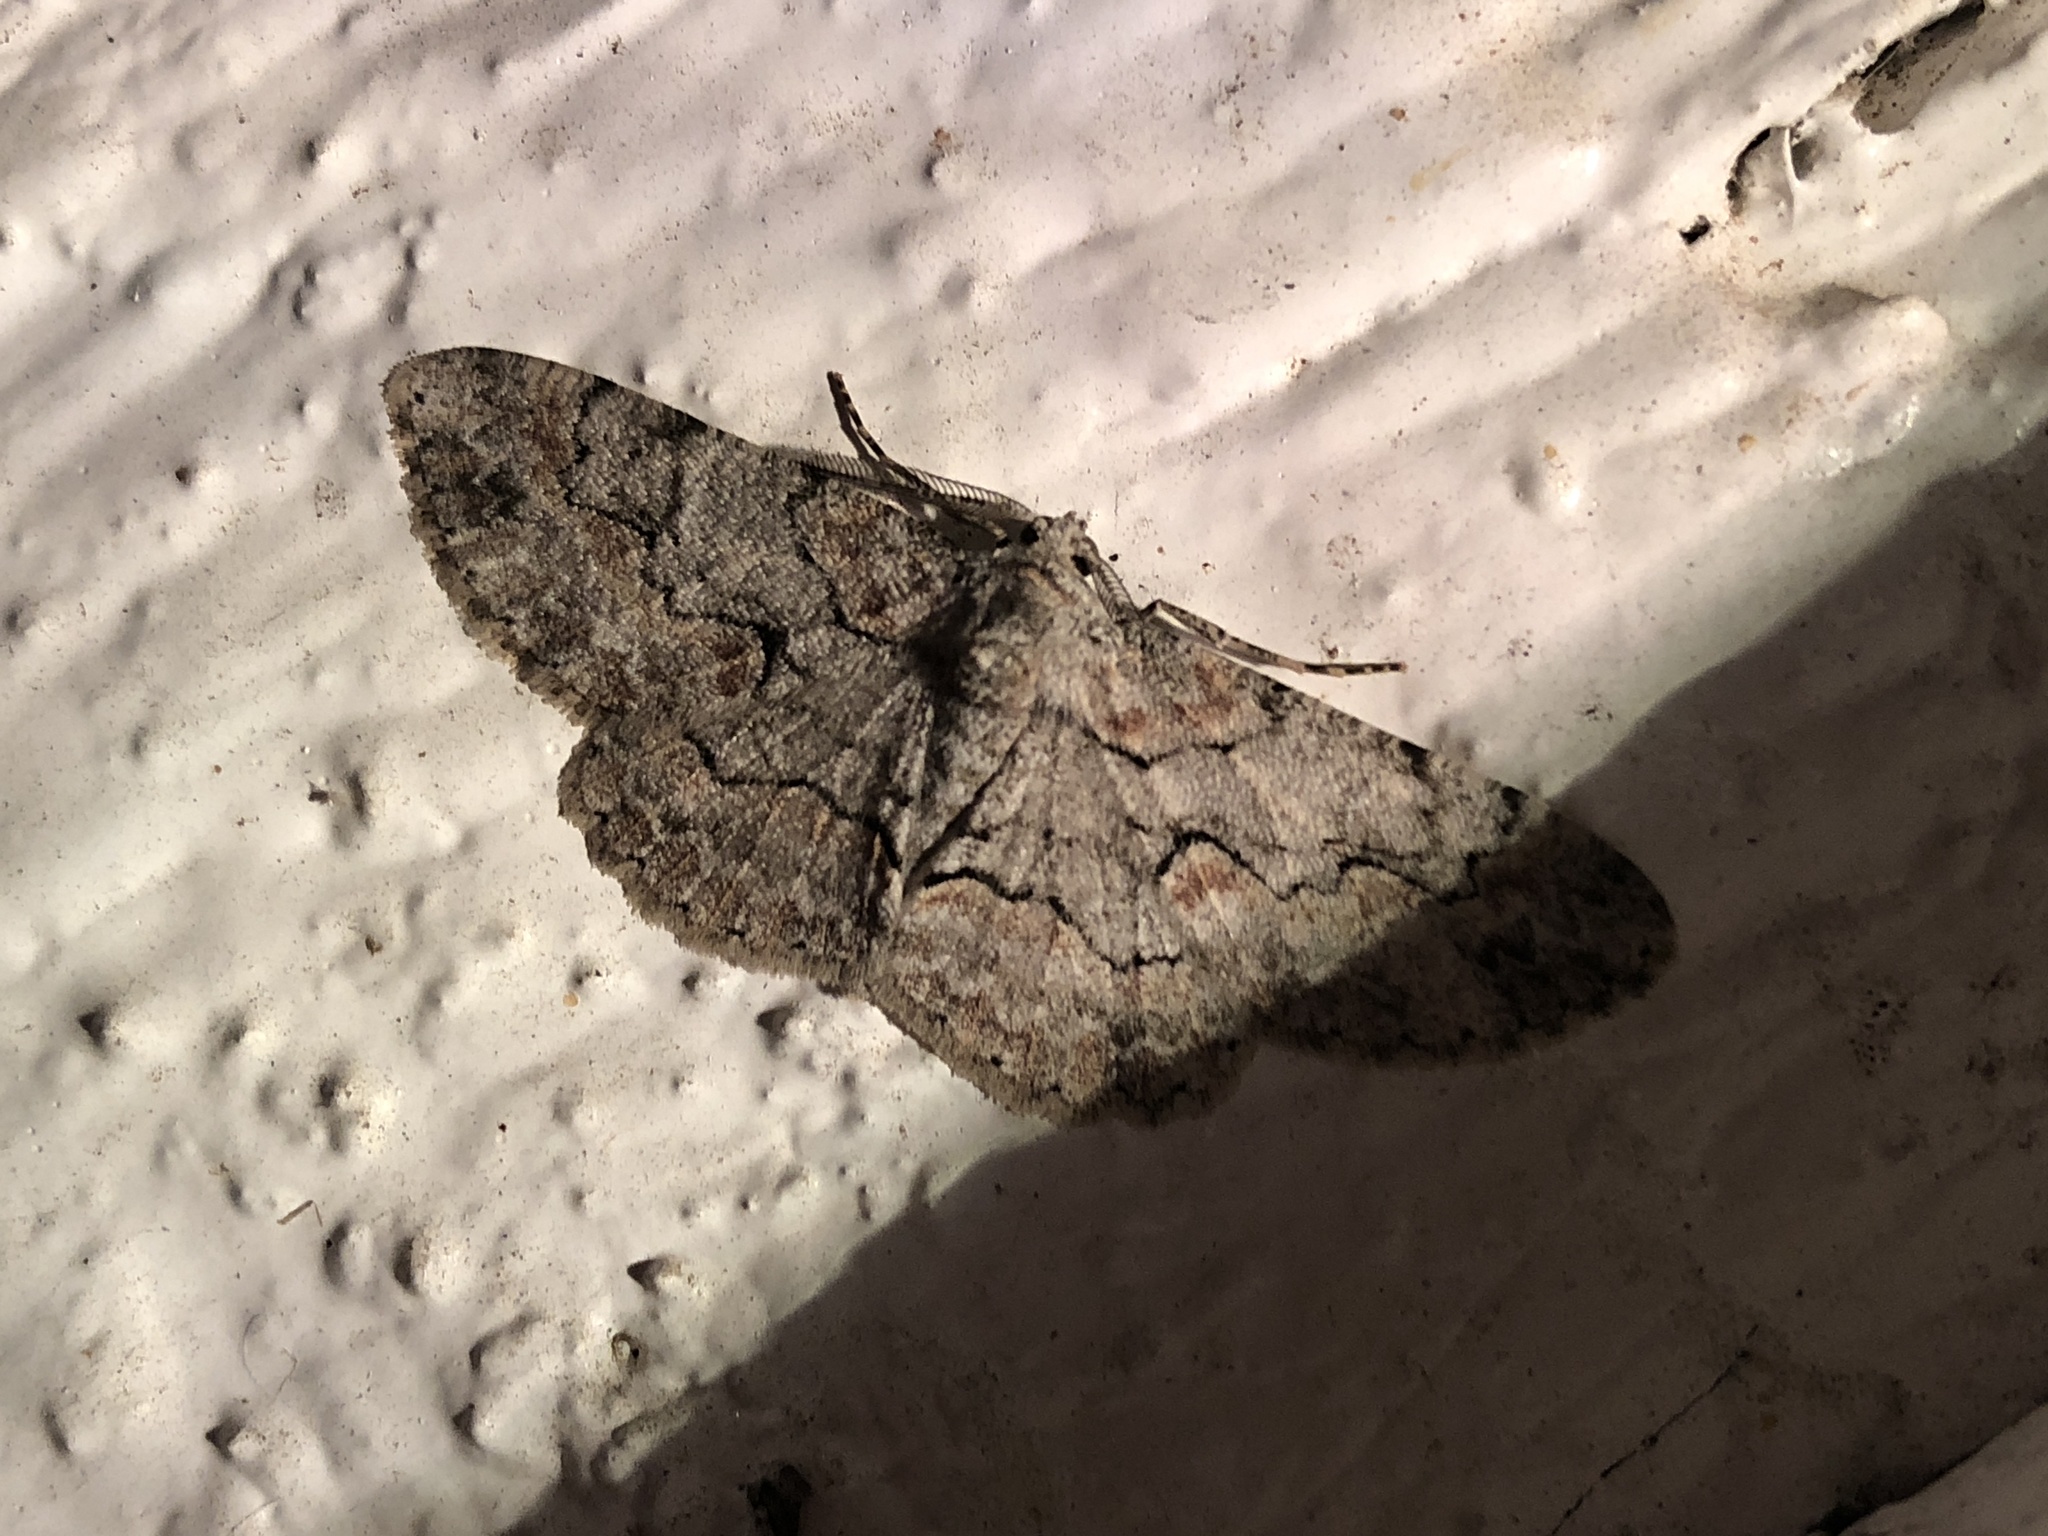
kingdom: Animalia
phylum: Arthropoda
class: Insecta
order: Lepidoptera
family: Geometridae
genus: Iridopsis
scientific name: Iridopsis defectaria
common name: Brown-shaded gray
